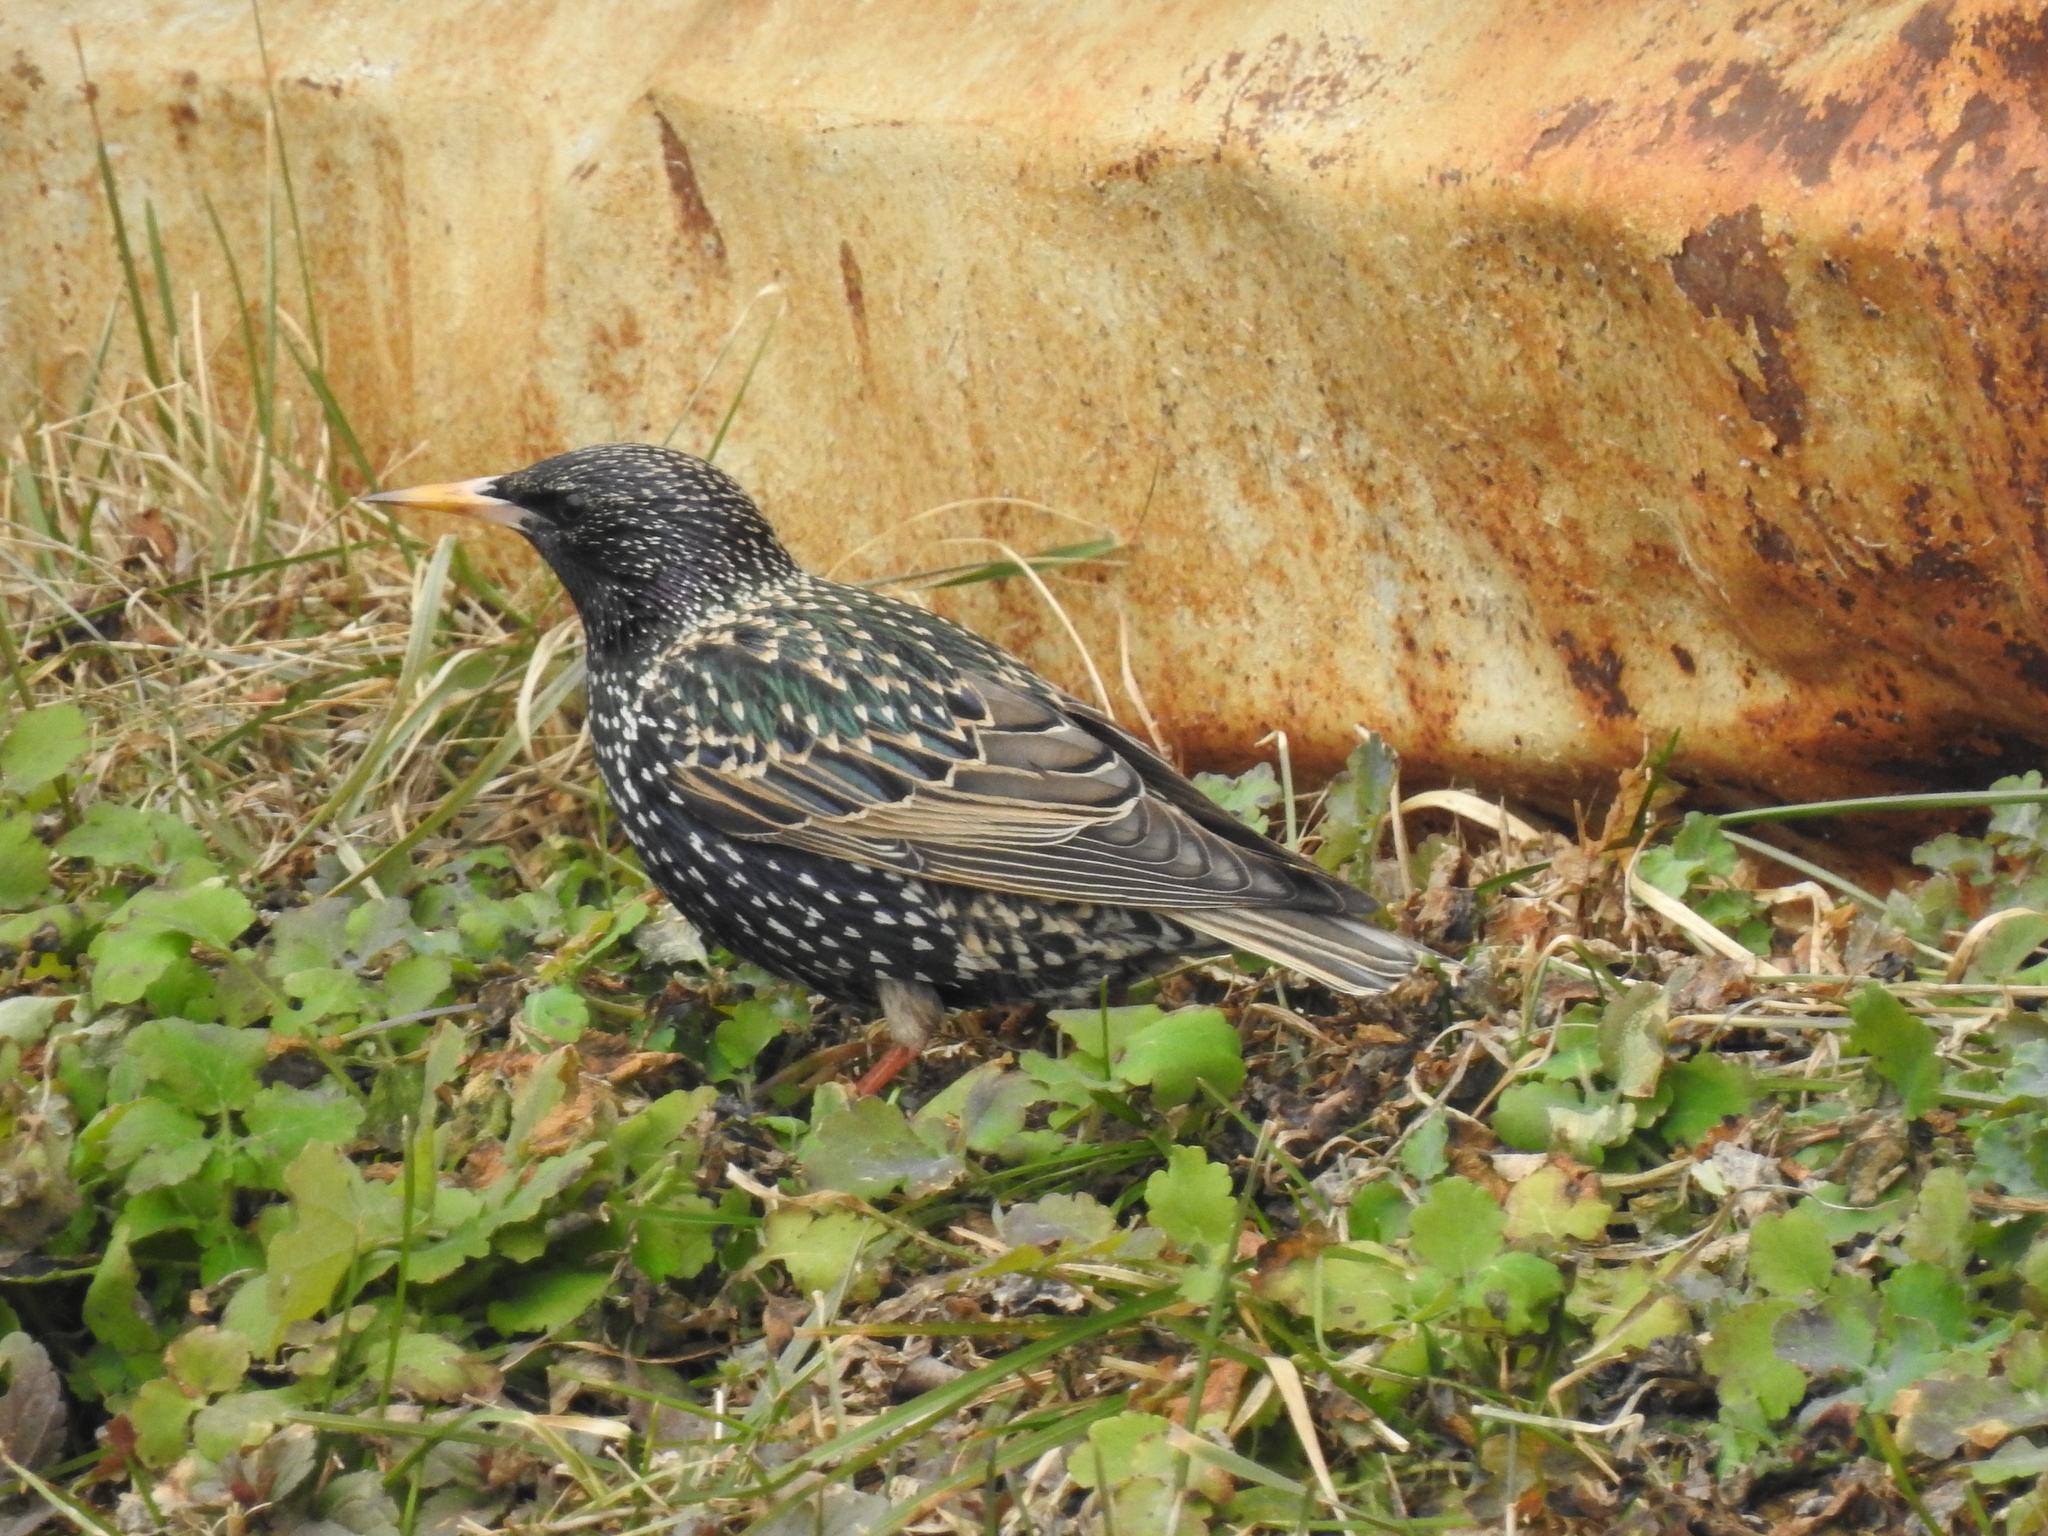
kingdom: Animalia
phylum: Chordata
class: Aves
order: Passeriformes
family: Sturnidae
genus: Sturnus
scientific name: Sturnus vulgaris
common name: Common starling
